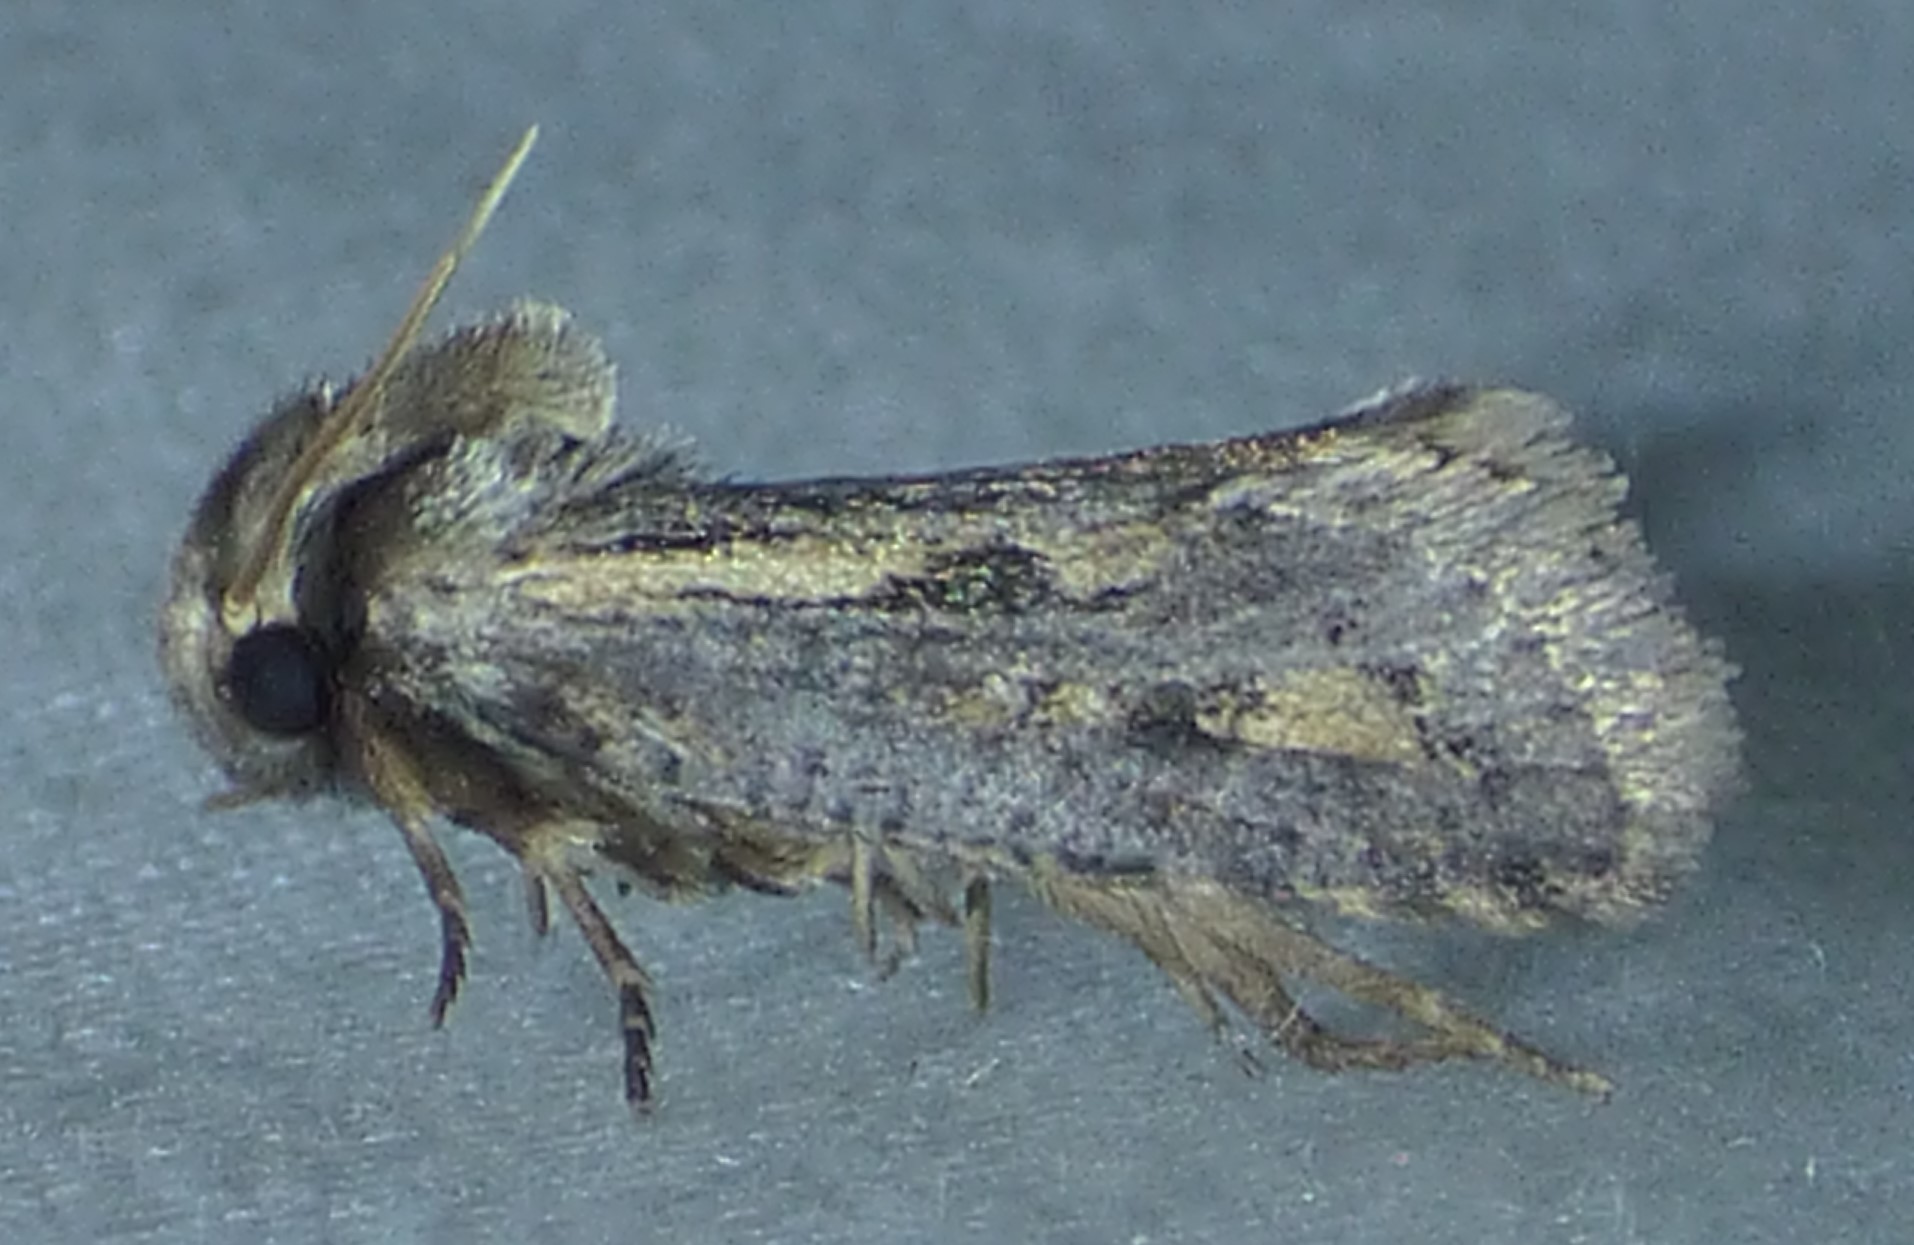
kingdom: Animalia
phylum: Arthropoda
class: Insecta
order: Lepidoptera
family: Tineidae
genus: Acrolophus
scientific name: Acrolophus popeanella
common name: Clemens' grass tubeworm moth
